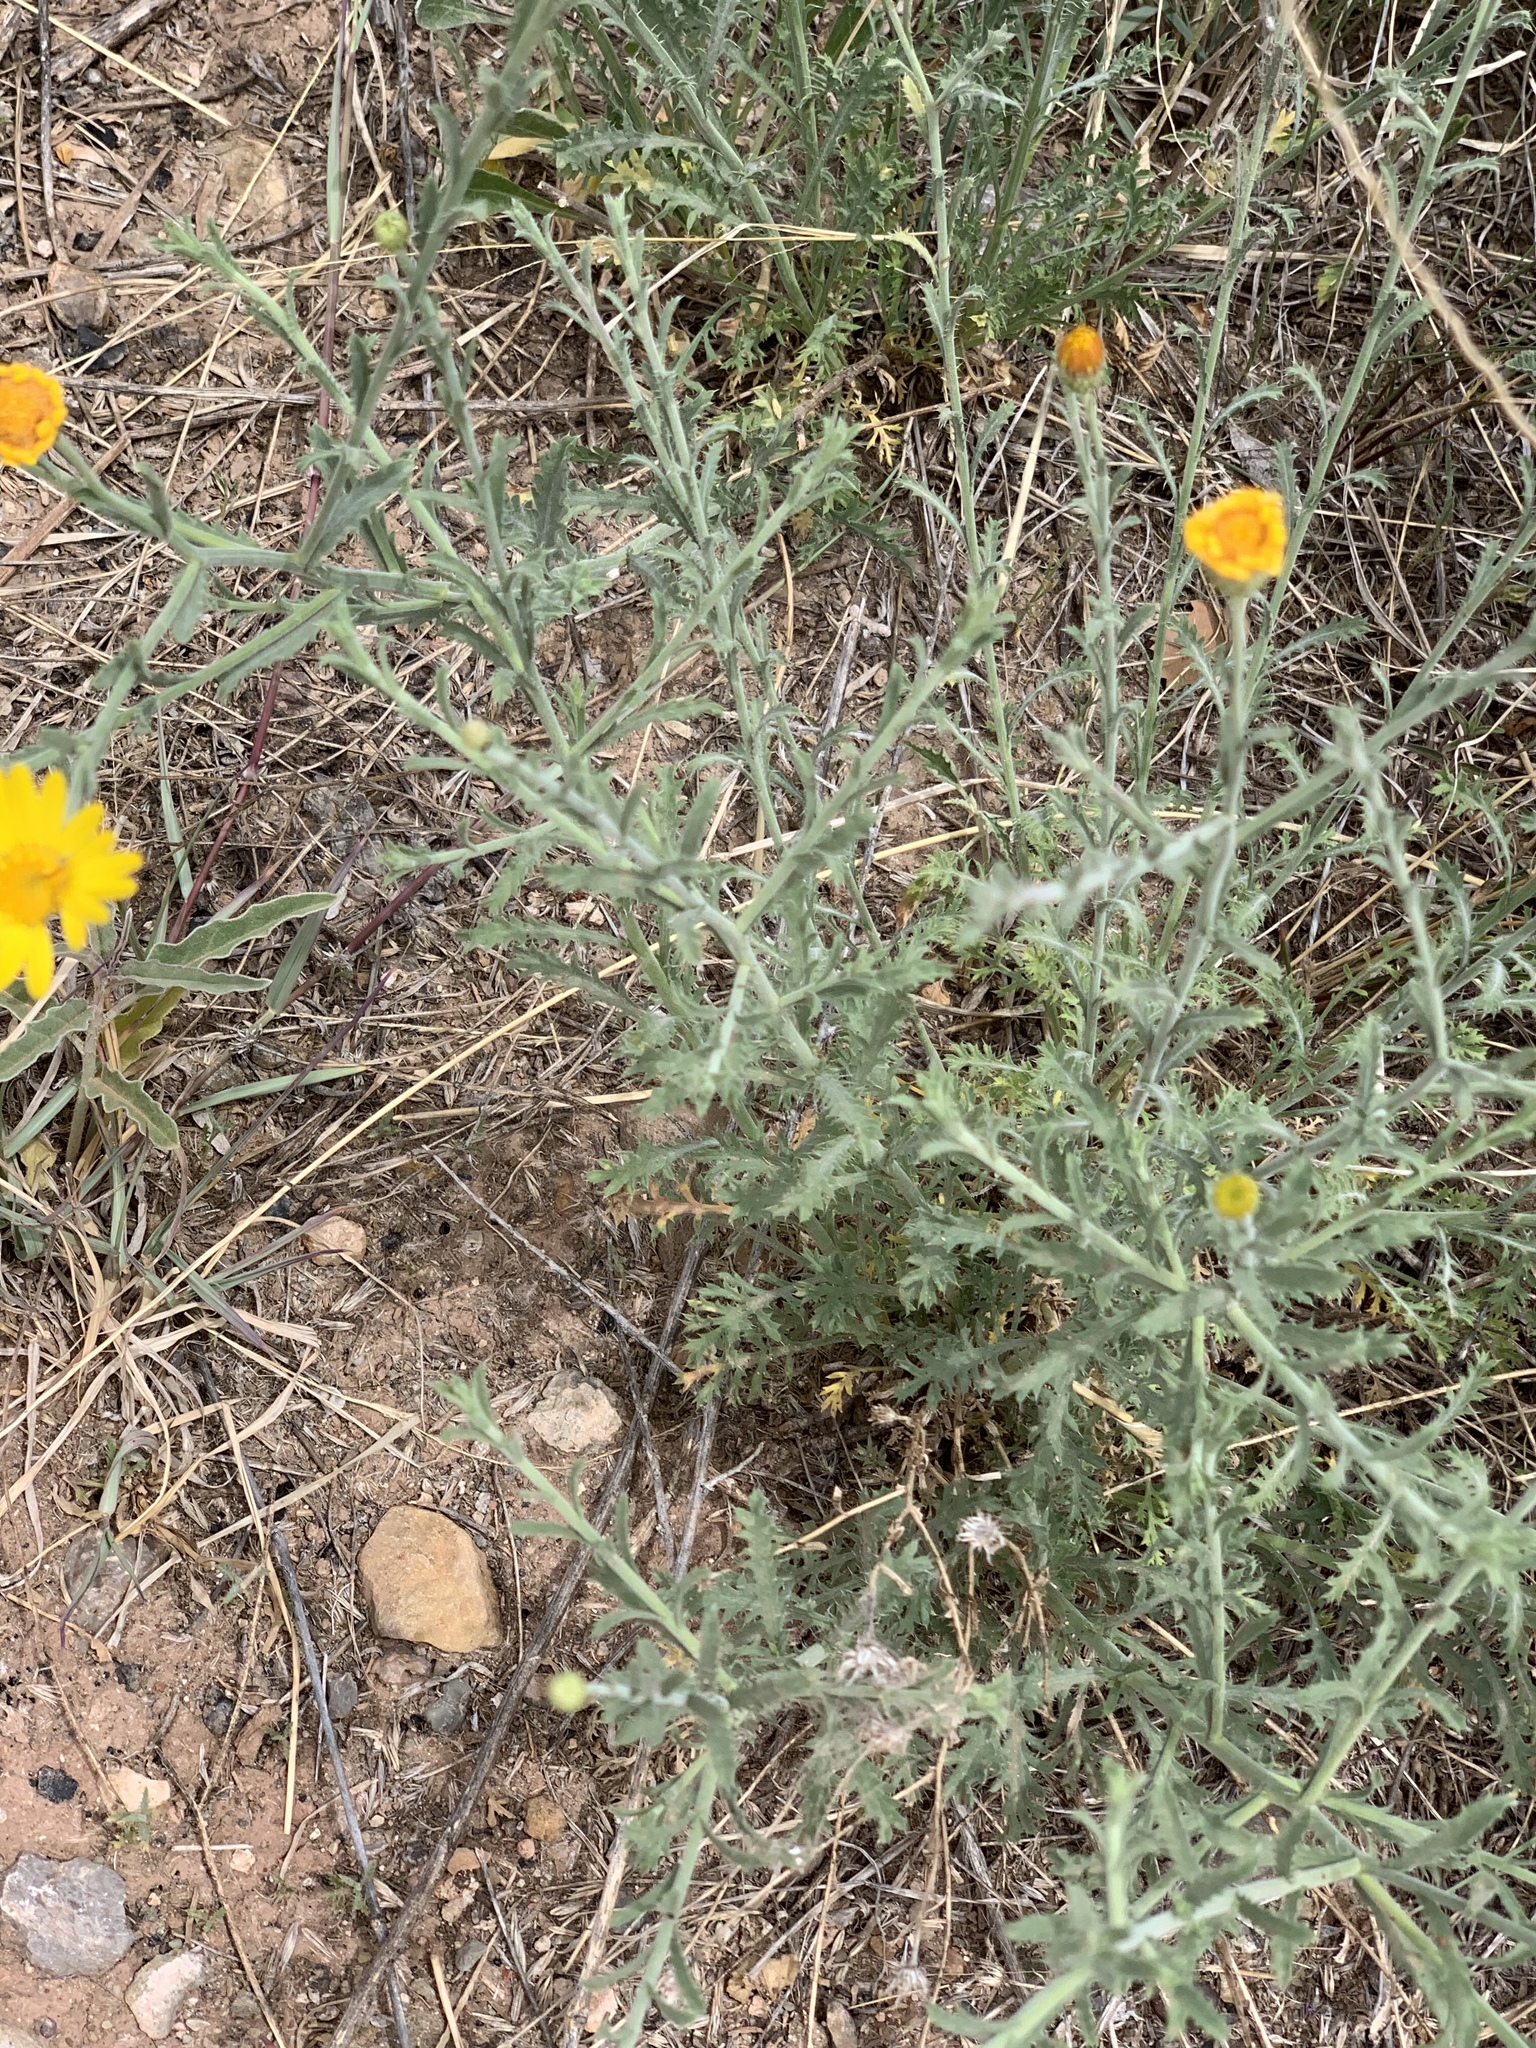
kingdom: Plantae
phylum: Tracheophyta
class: Magnoliopsida
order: Asterales
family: Asteraceae
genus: Xanthisma
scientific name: Xanthisma spinulosum
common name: Spiny goldenweed
